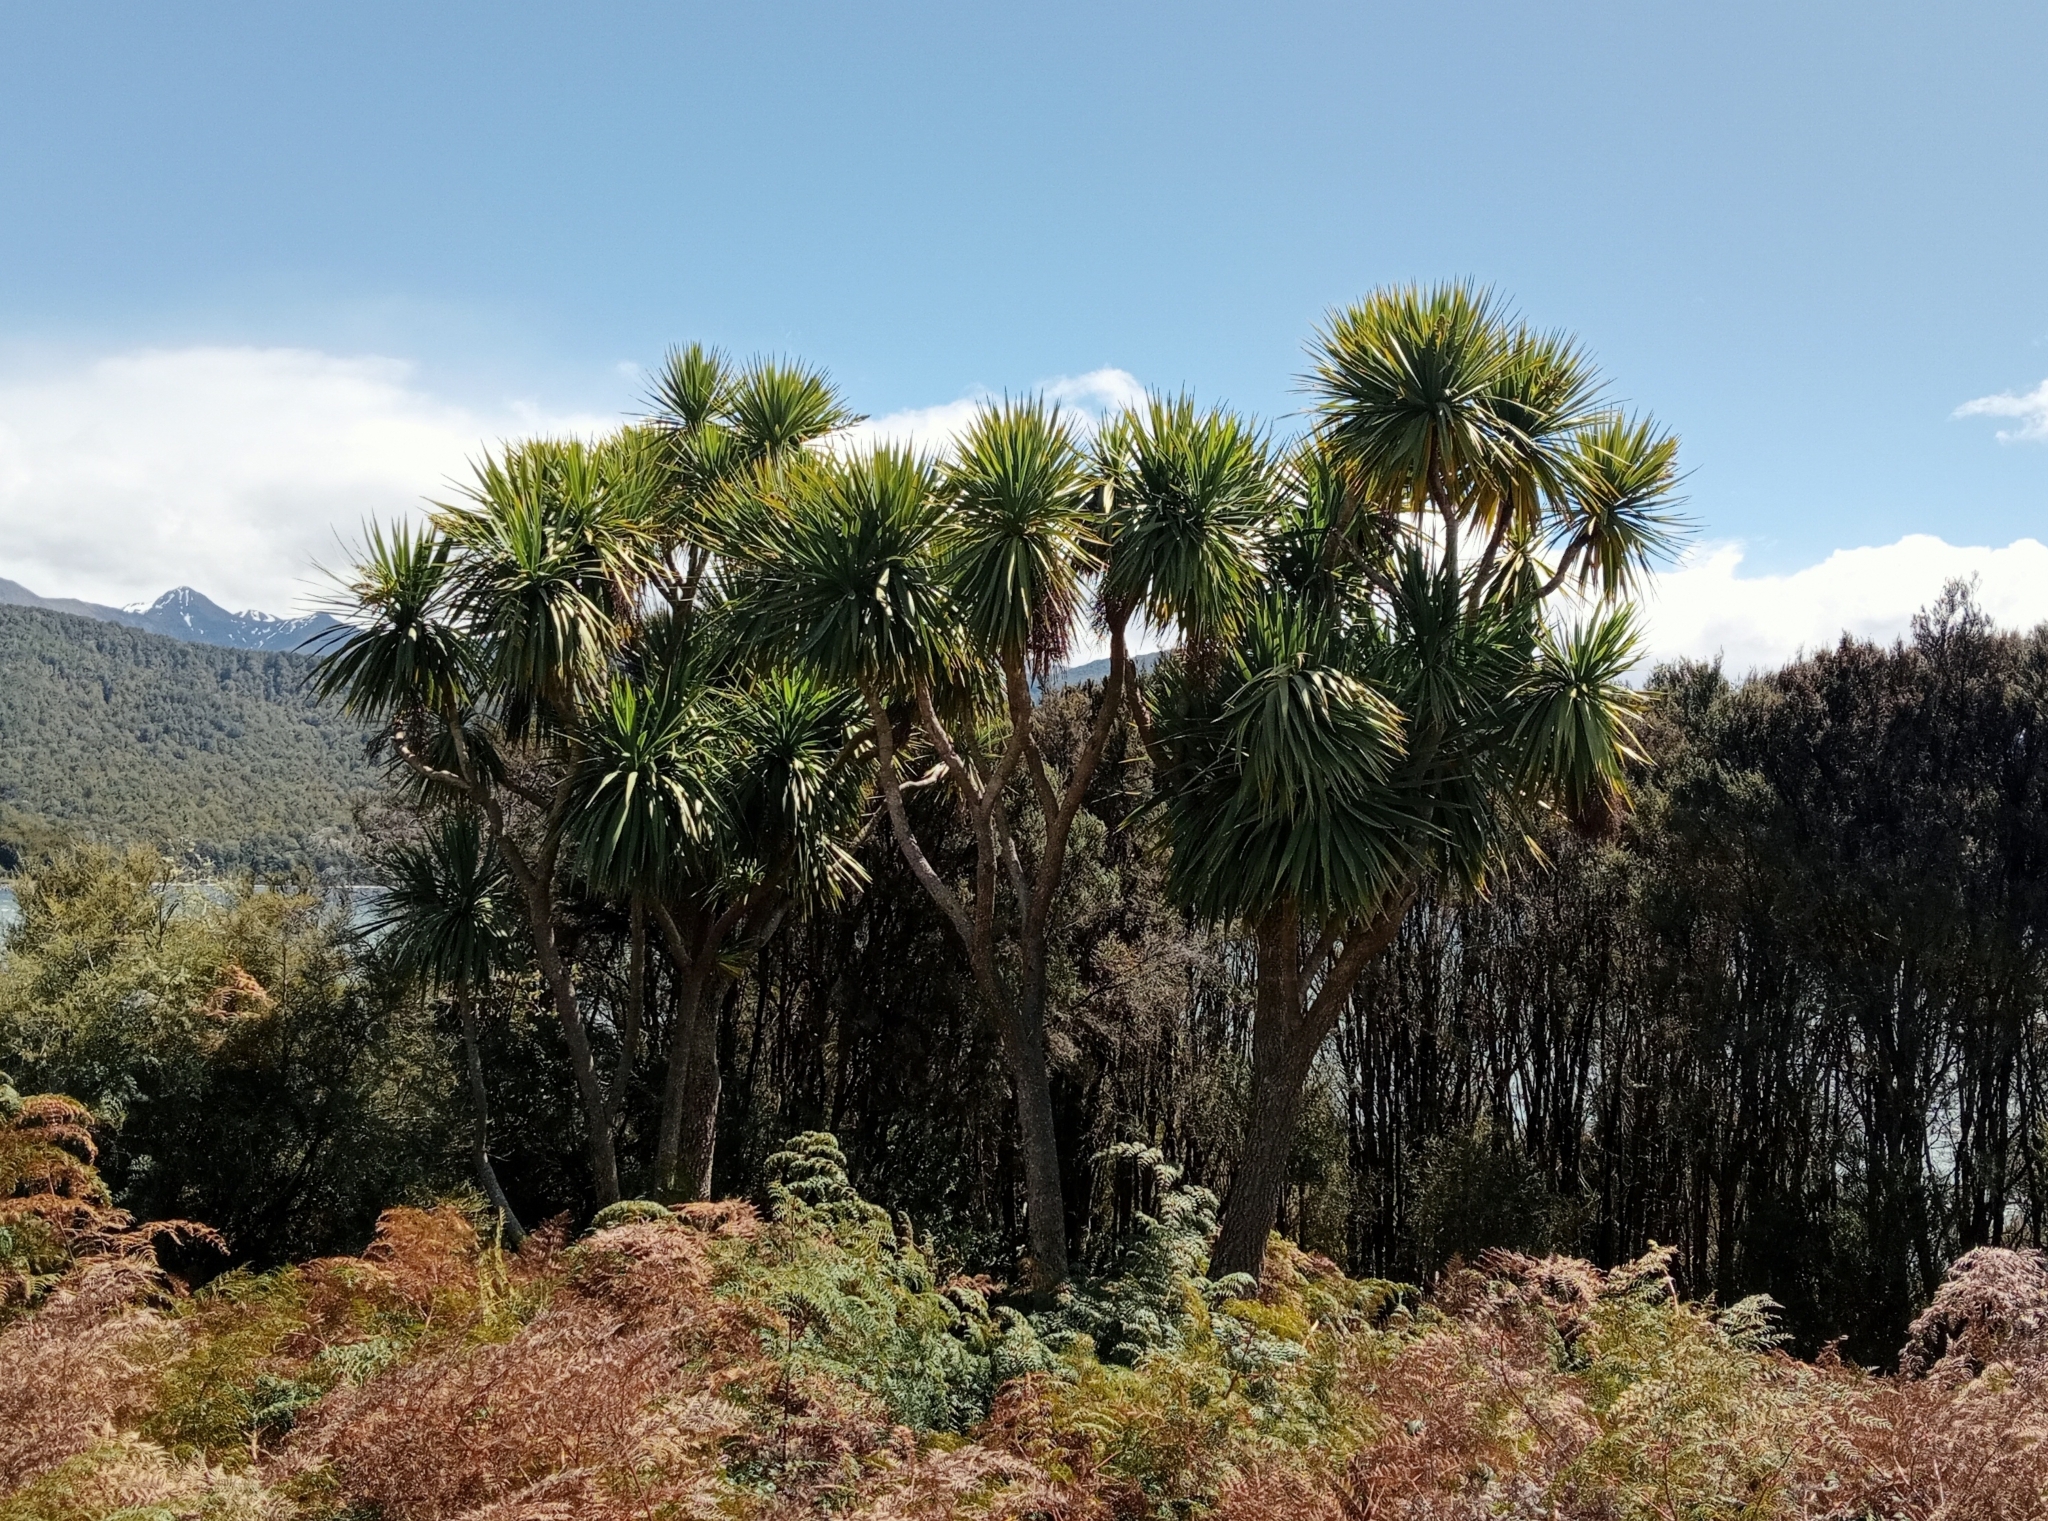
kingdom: Plantae
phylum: Tracheophyta
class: Liliopsida
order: Asparagales
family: Asparagaceae
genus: Cordyline
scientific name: Cordyline australis
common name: Cabbage-palm
